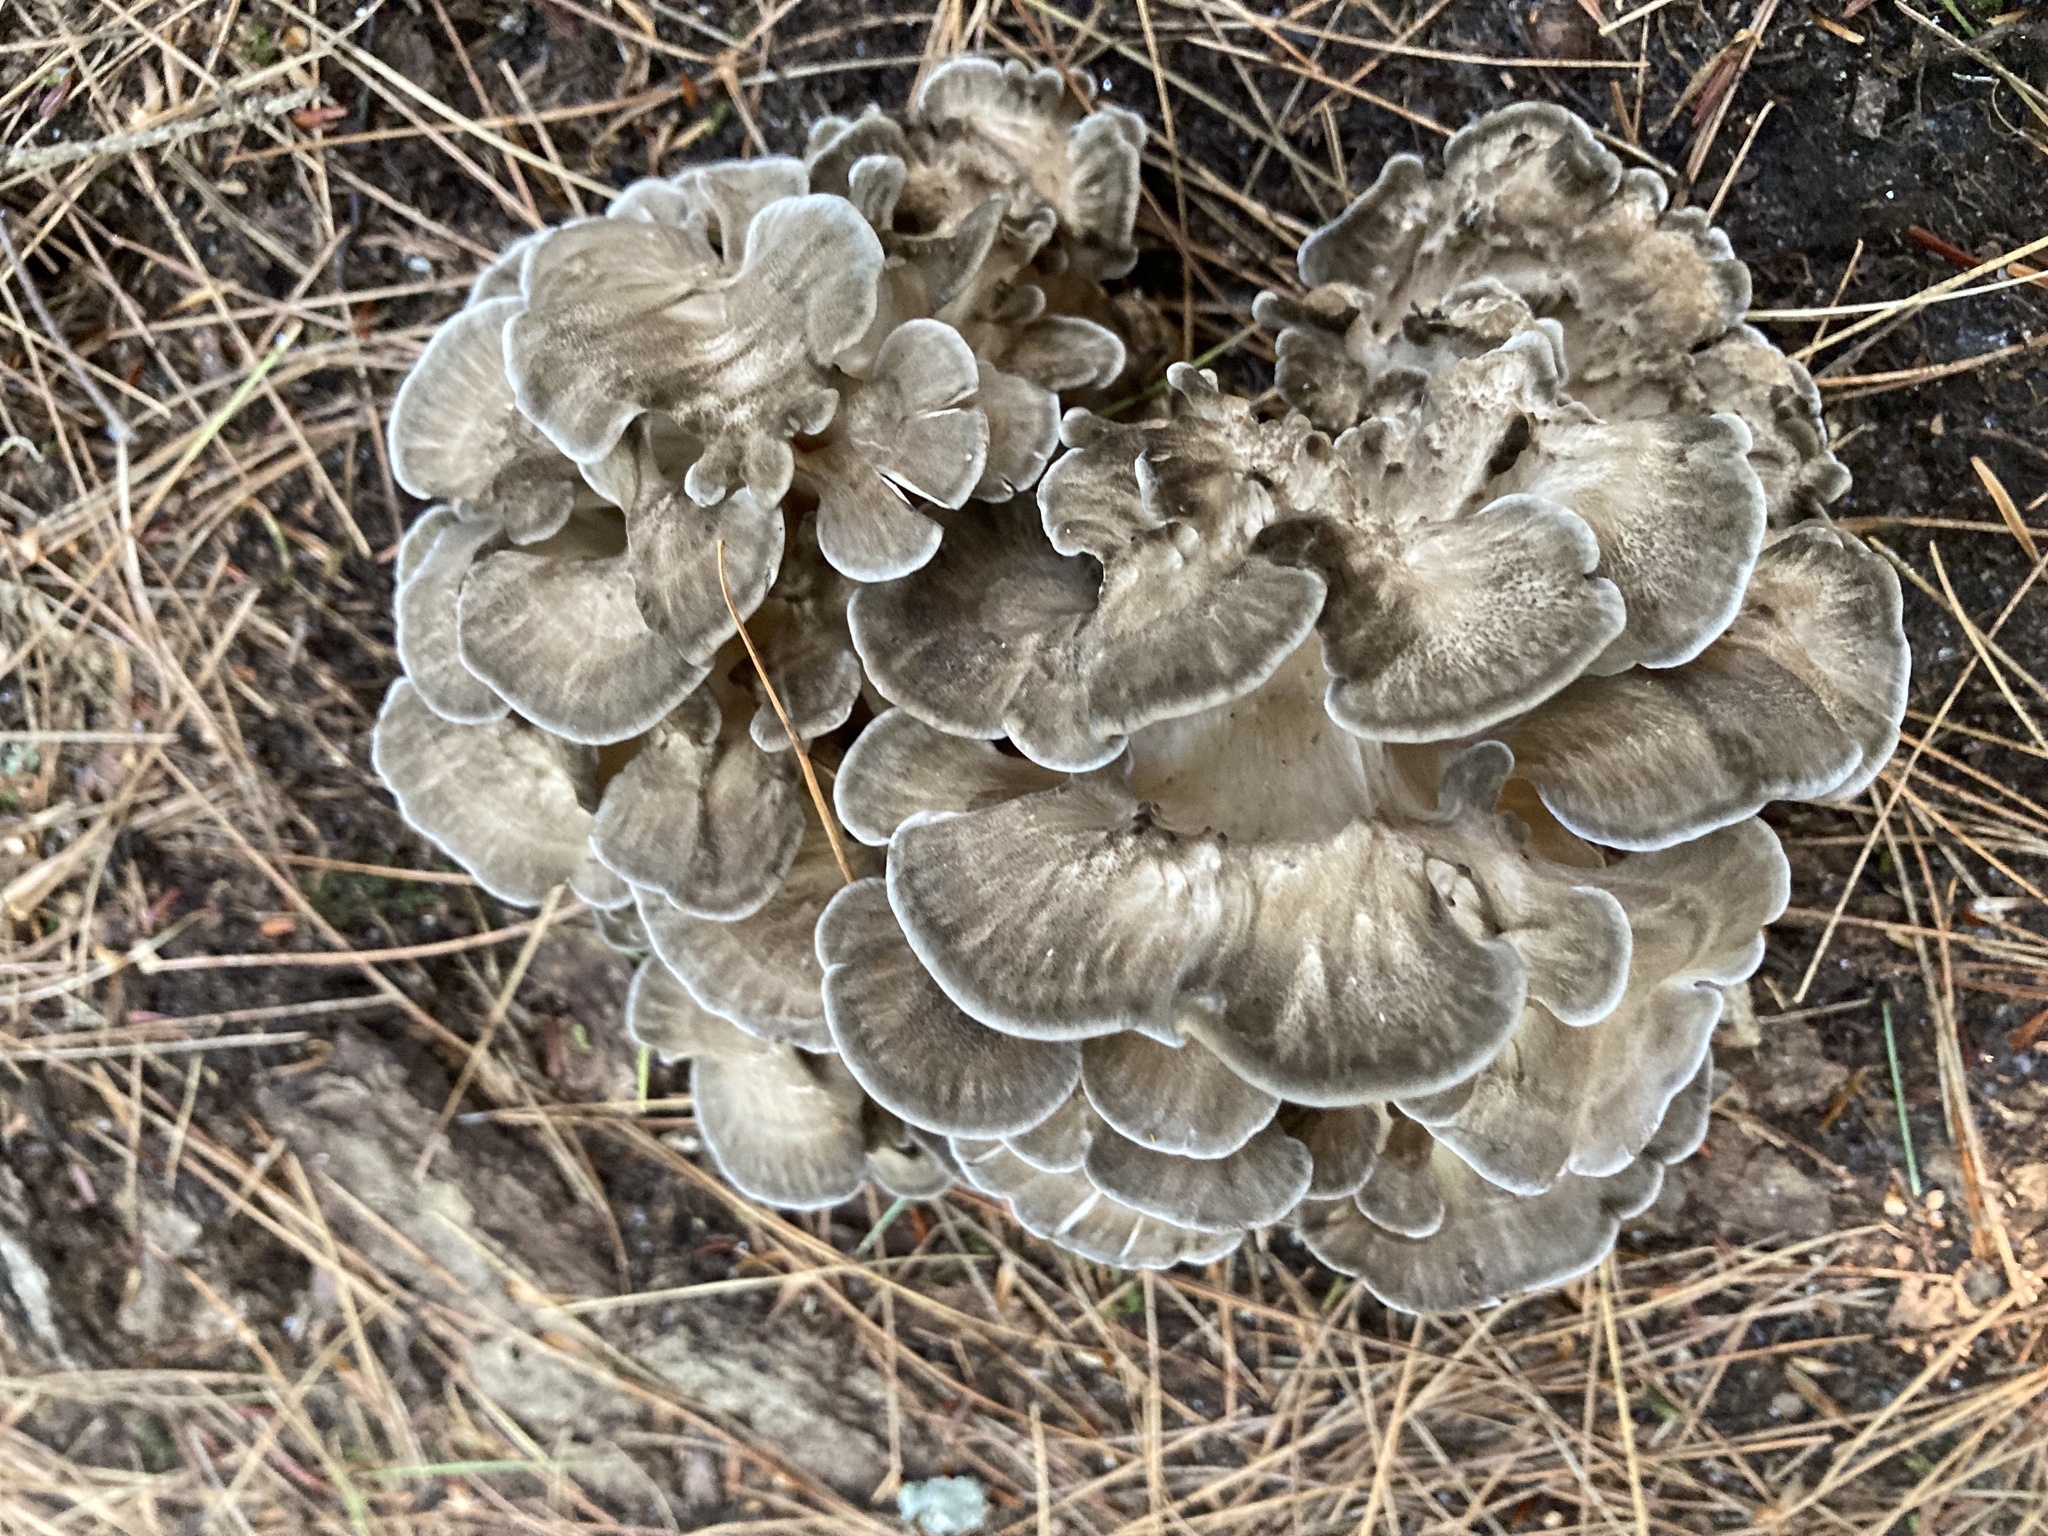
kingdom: Fungi
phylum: Basidiomycota
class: Agaricomycetes
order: Polyporales
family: Grifolaceae
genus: Grifola
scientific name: Grifola frondosa
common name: Hen of the woods
